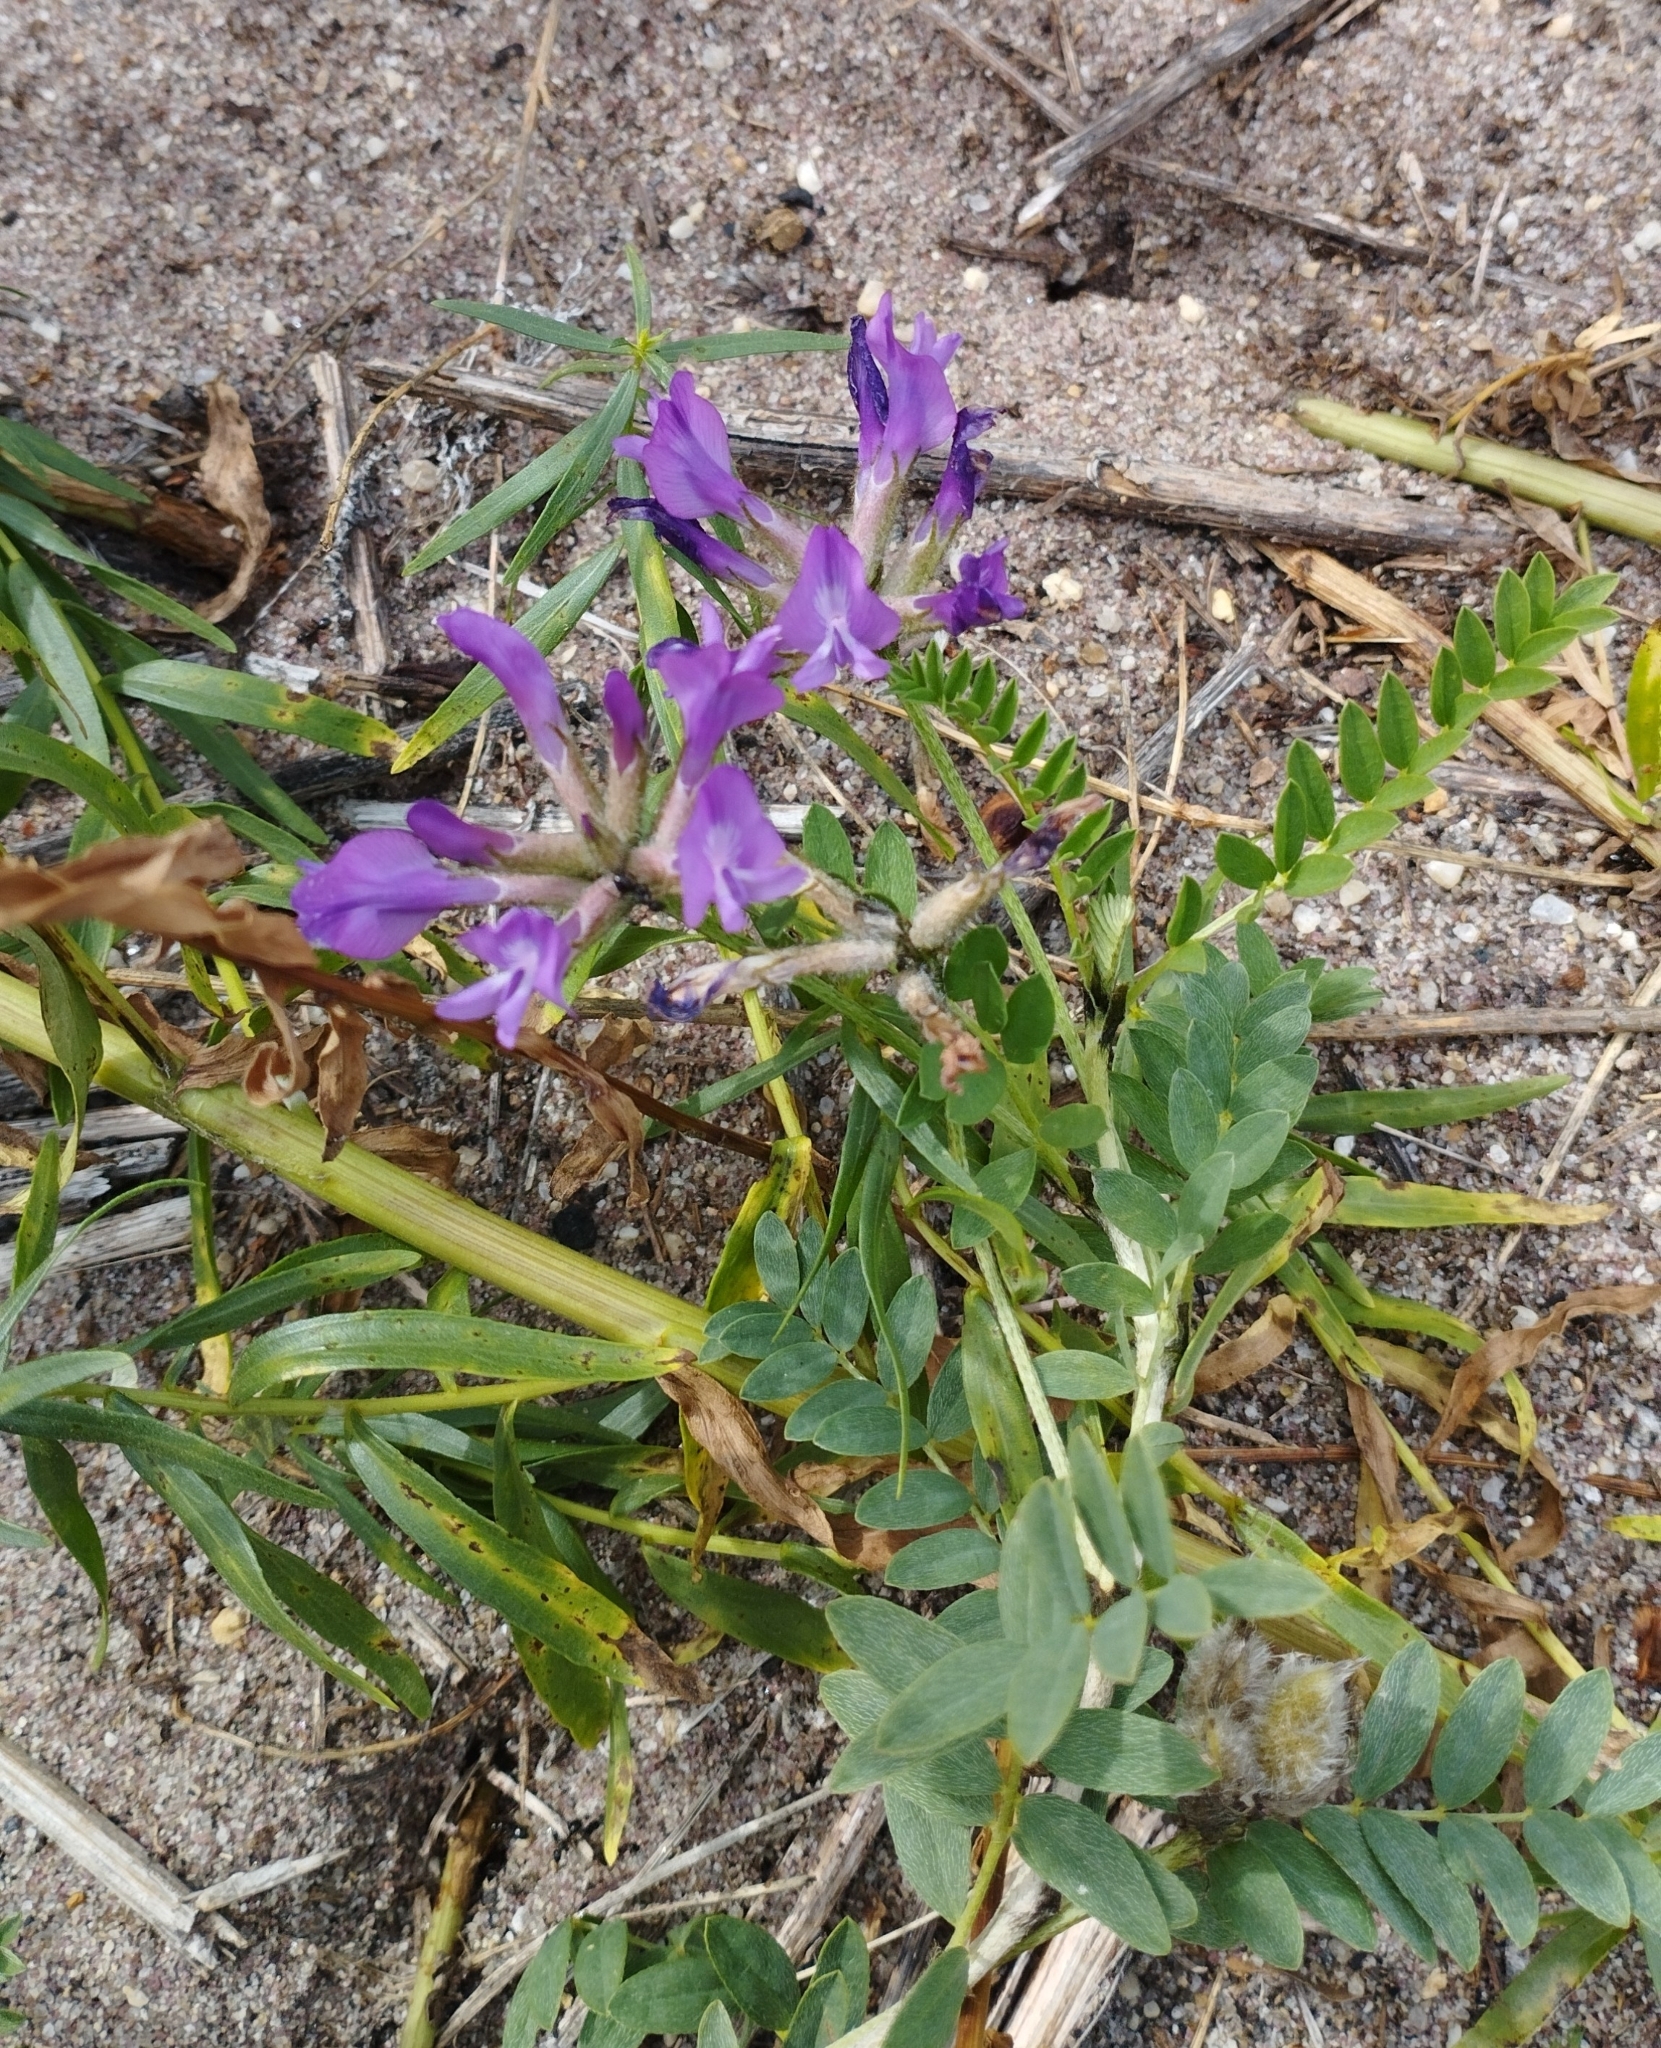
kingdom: Plantae
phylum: Tracheophyta
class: Magnoliopsida
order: Fabales
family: Fabaceae
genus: Astragalus
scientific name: Astragalus syriacus
